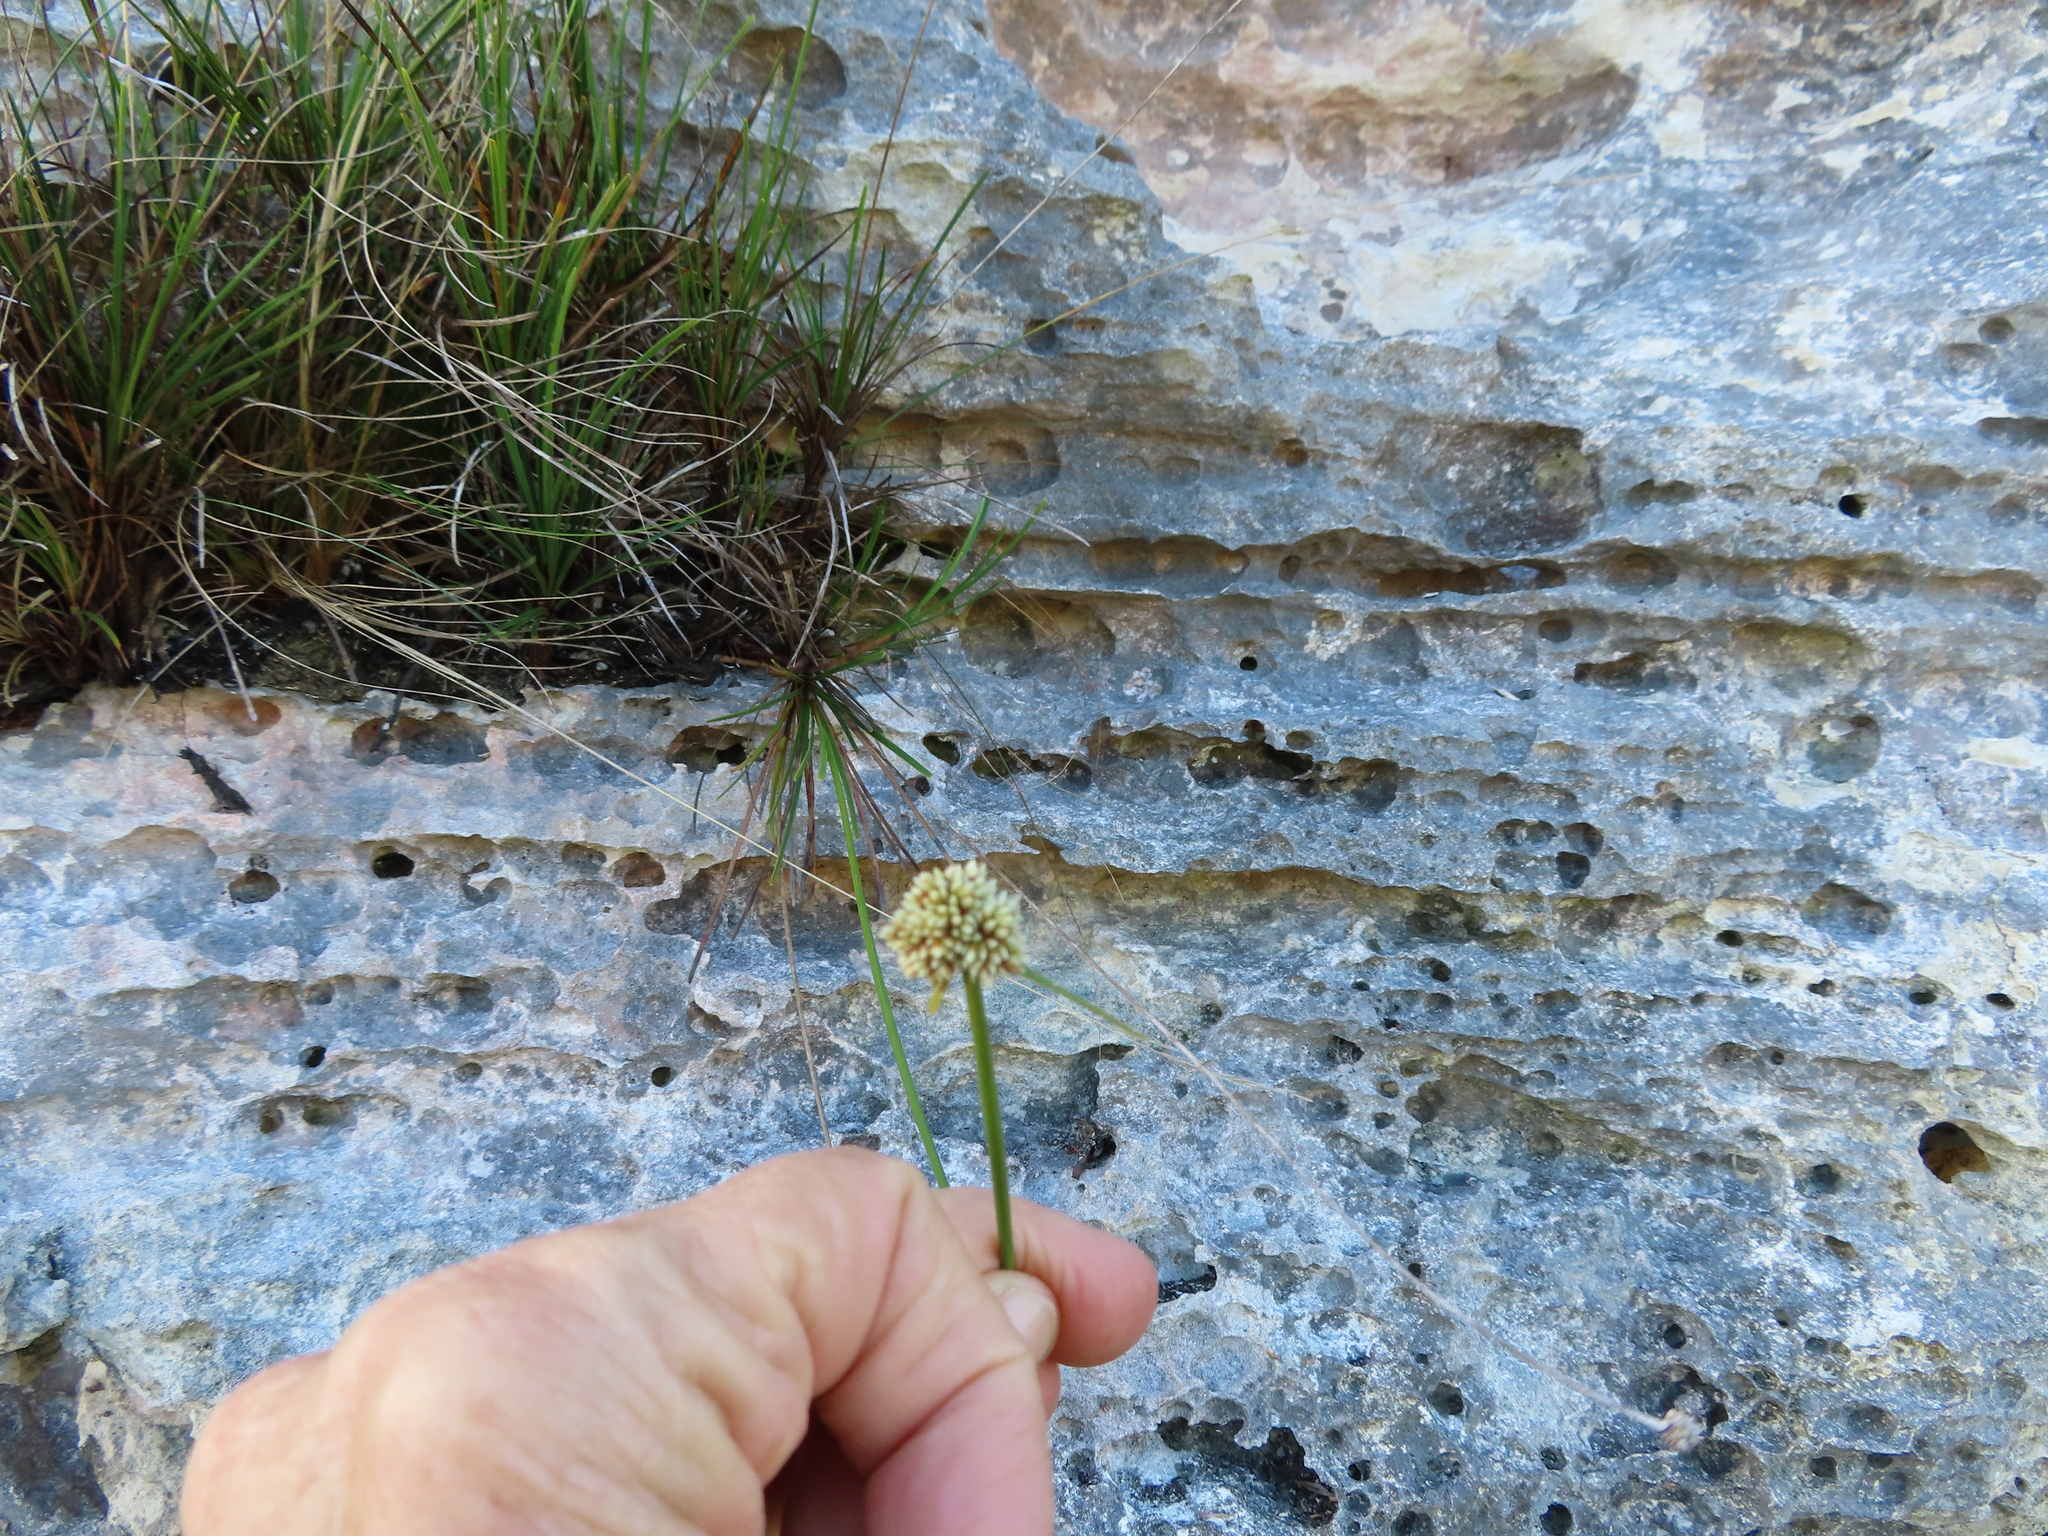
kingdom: Plantae
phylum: Tracheophyta
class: Liliopsida
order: Poales
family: Cyperaceae
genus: Ficinia
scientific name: Ficinia praemorsa
